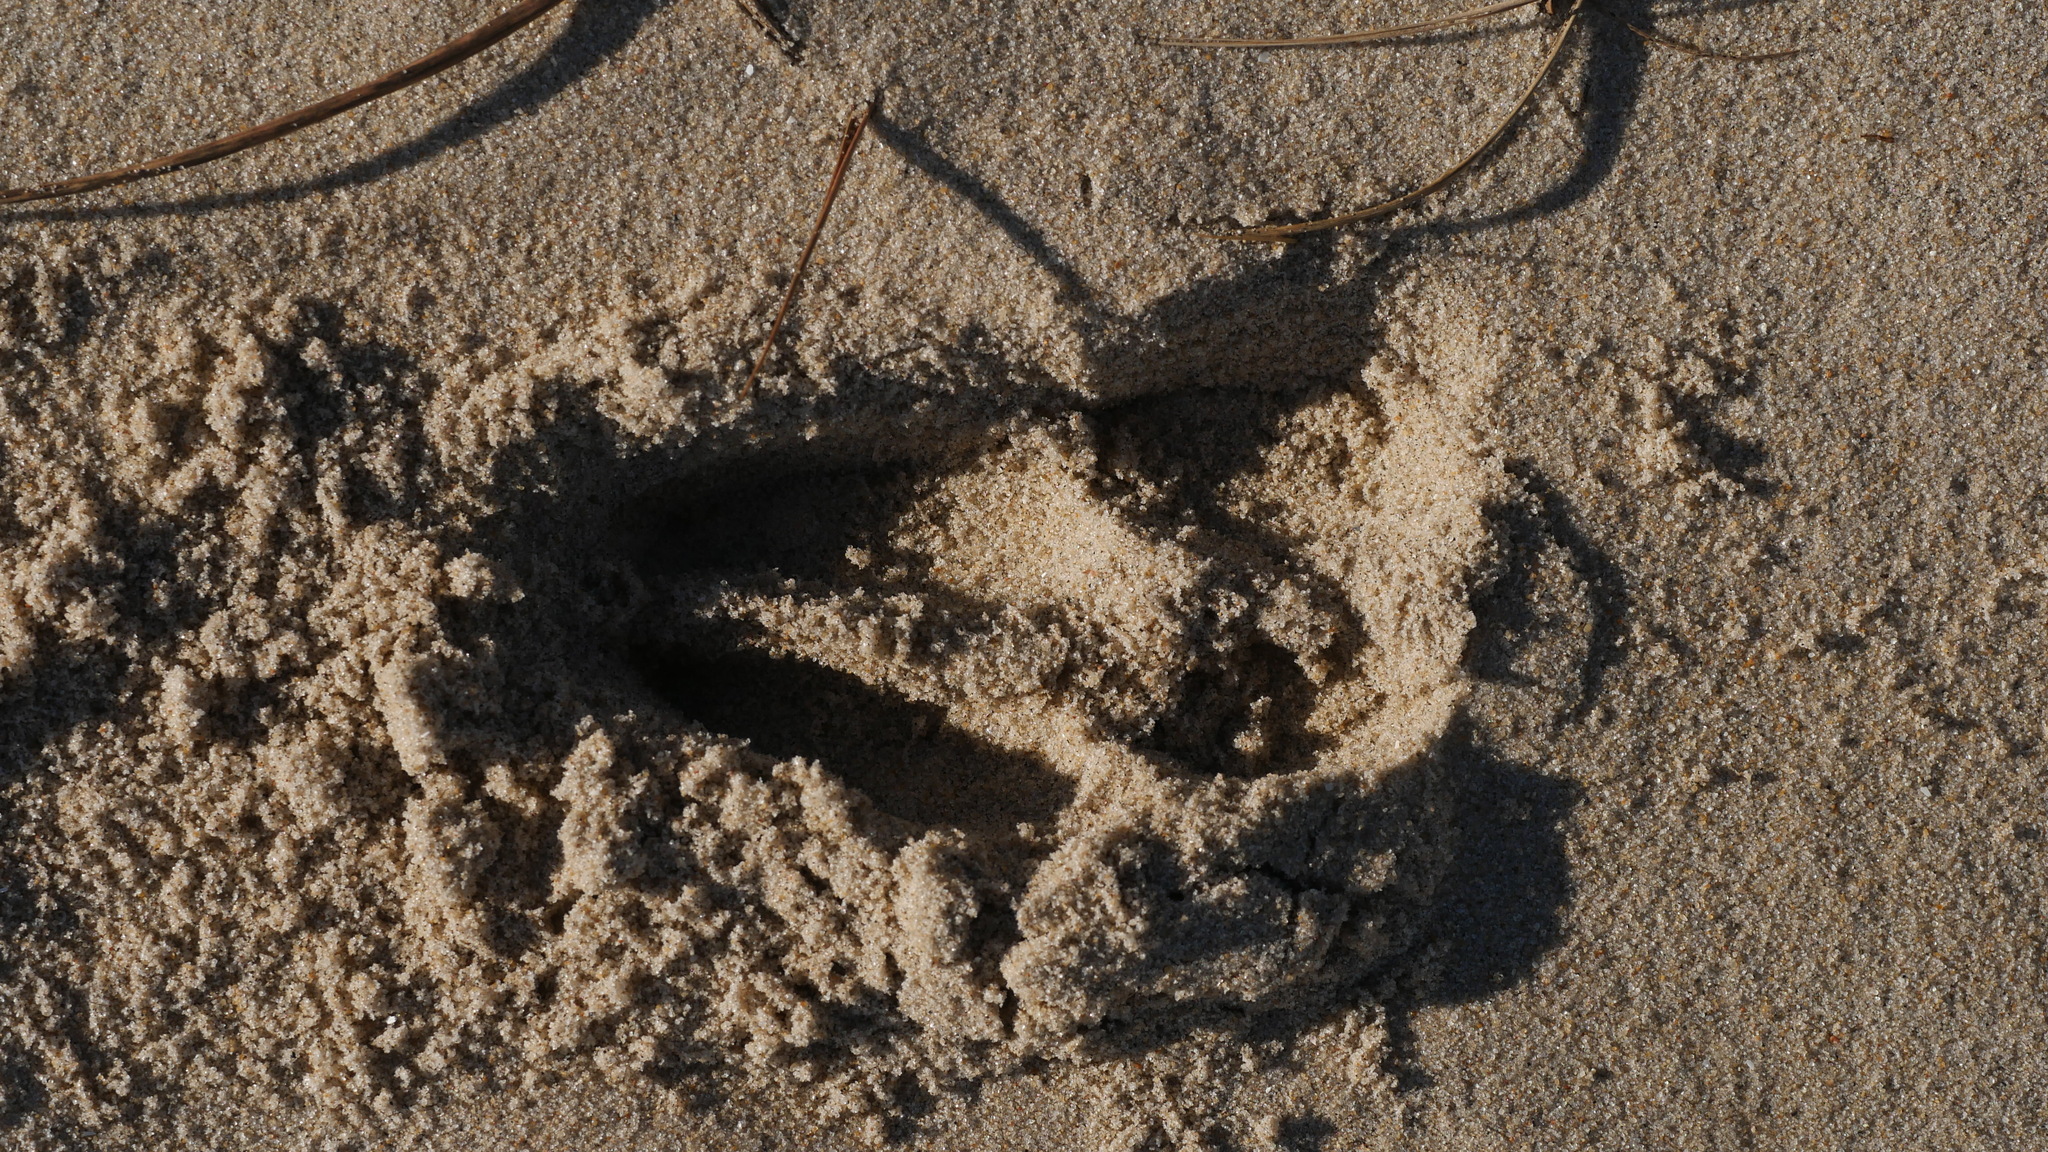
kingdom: Animalia
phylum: Chordata
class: Mammalia
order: Artiodactyla
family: Cervidae
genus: Odocoileus
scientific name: Odocoileus virginianus
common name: White-tailed deer
